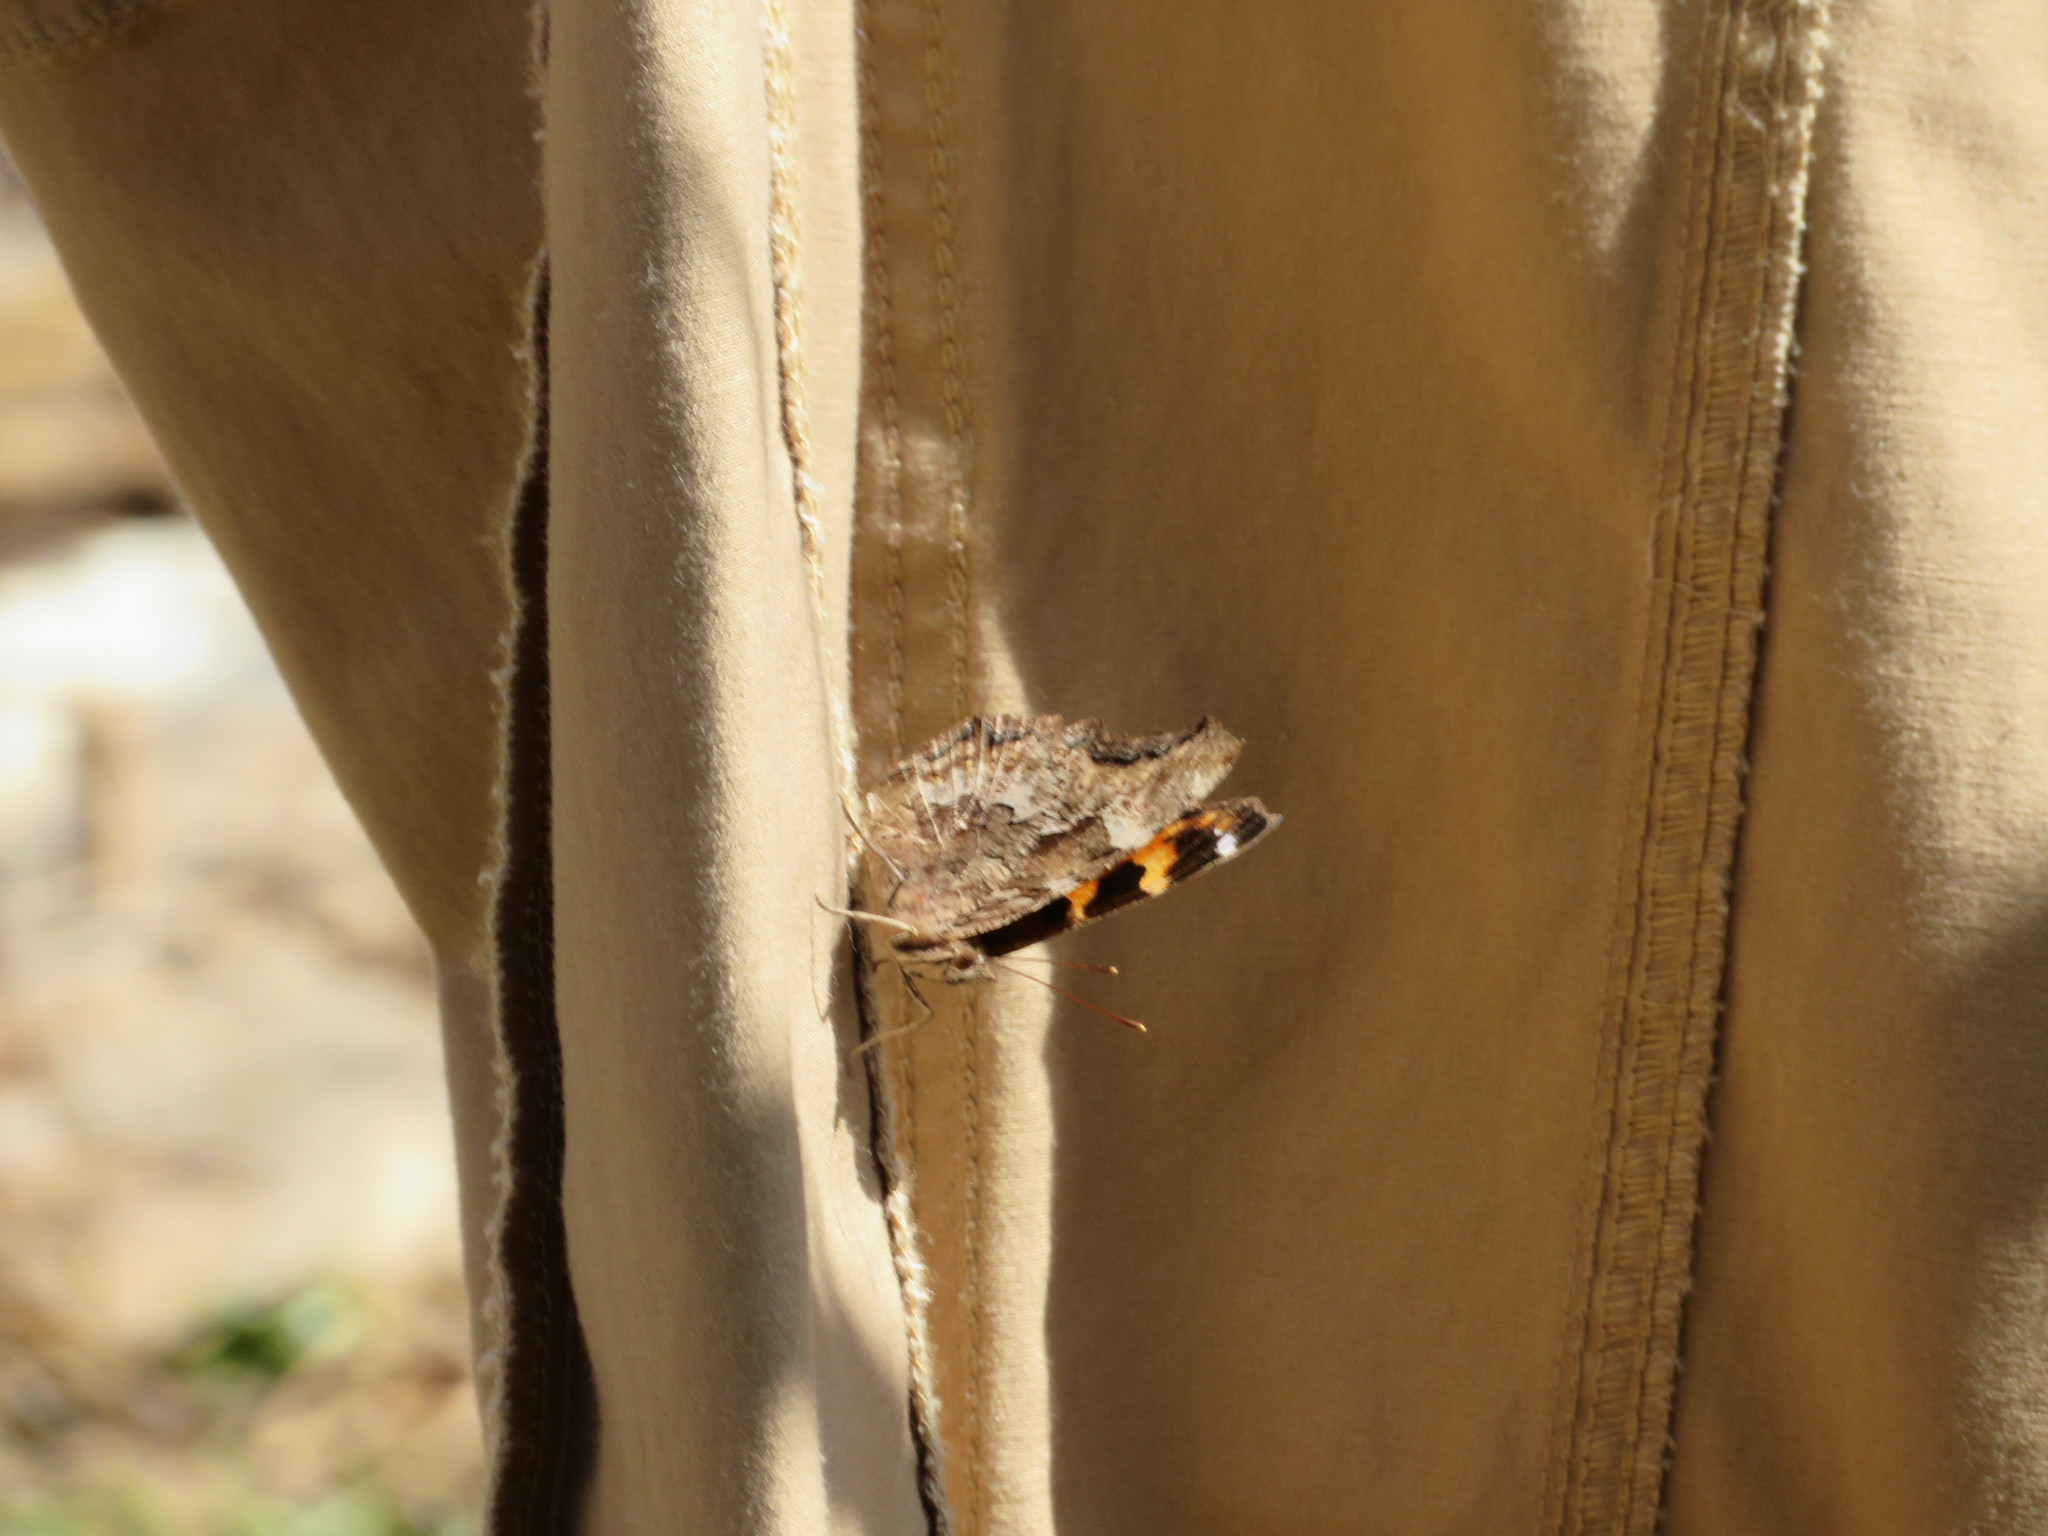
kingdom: Animalia
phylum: Arthropoda
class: Insecta
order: Lepidoptera
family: Nymphalidae
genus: Polygonia
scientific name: Polygonia vaualbum
